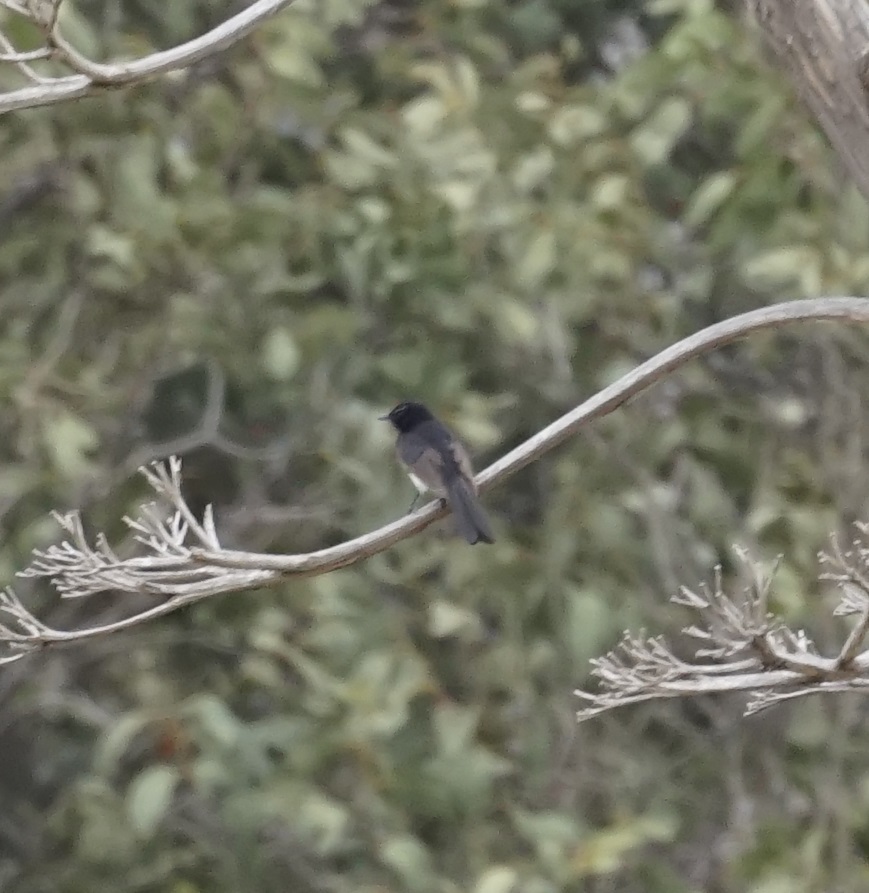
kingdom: Animalia
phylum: Chordata
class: Aves
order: Passeriformes
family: Rhipiduridae
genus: Rhipidura
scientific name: Rhipidura leucophrys
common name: Willie wagtail
